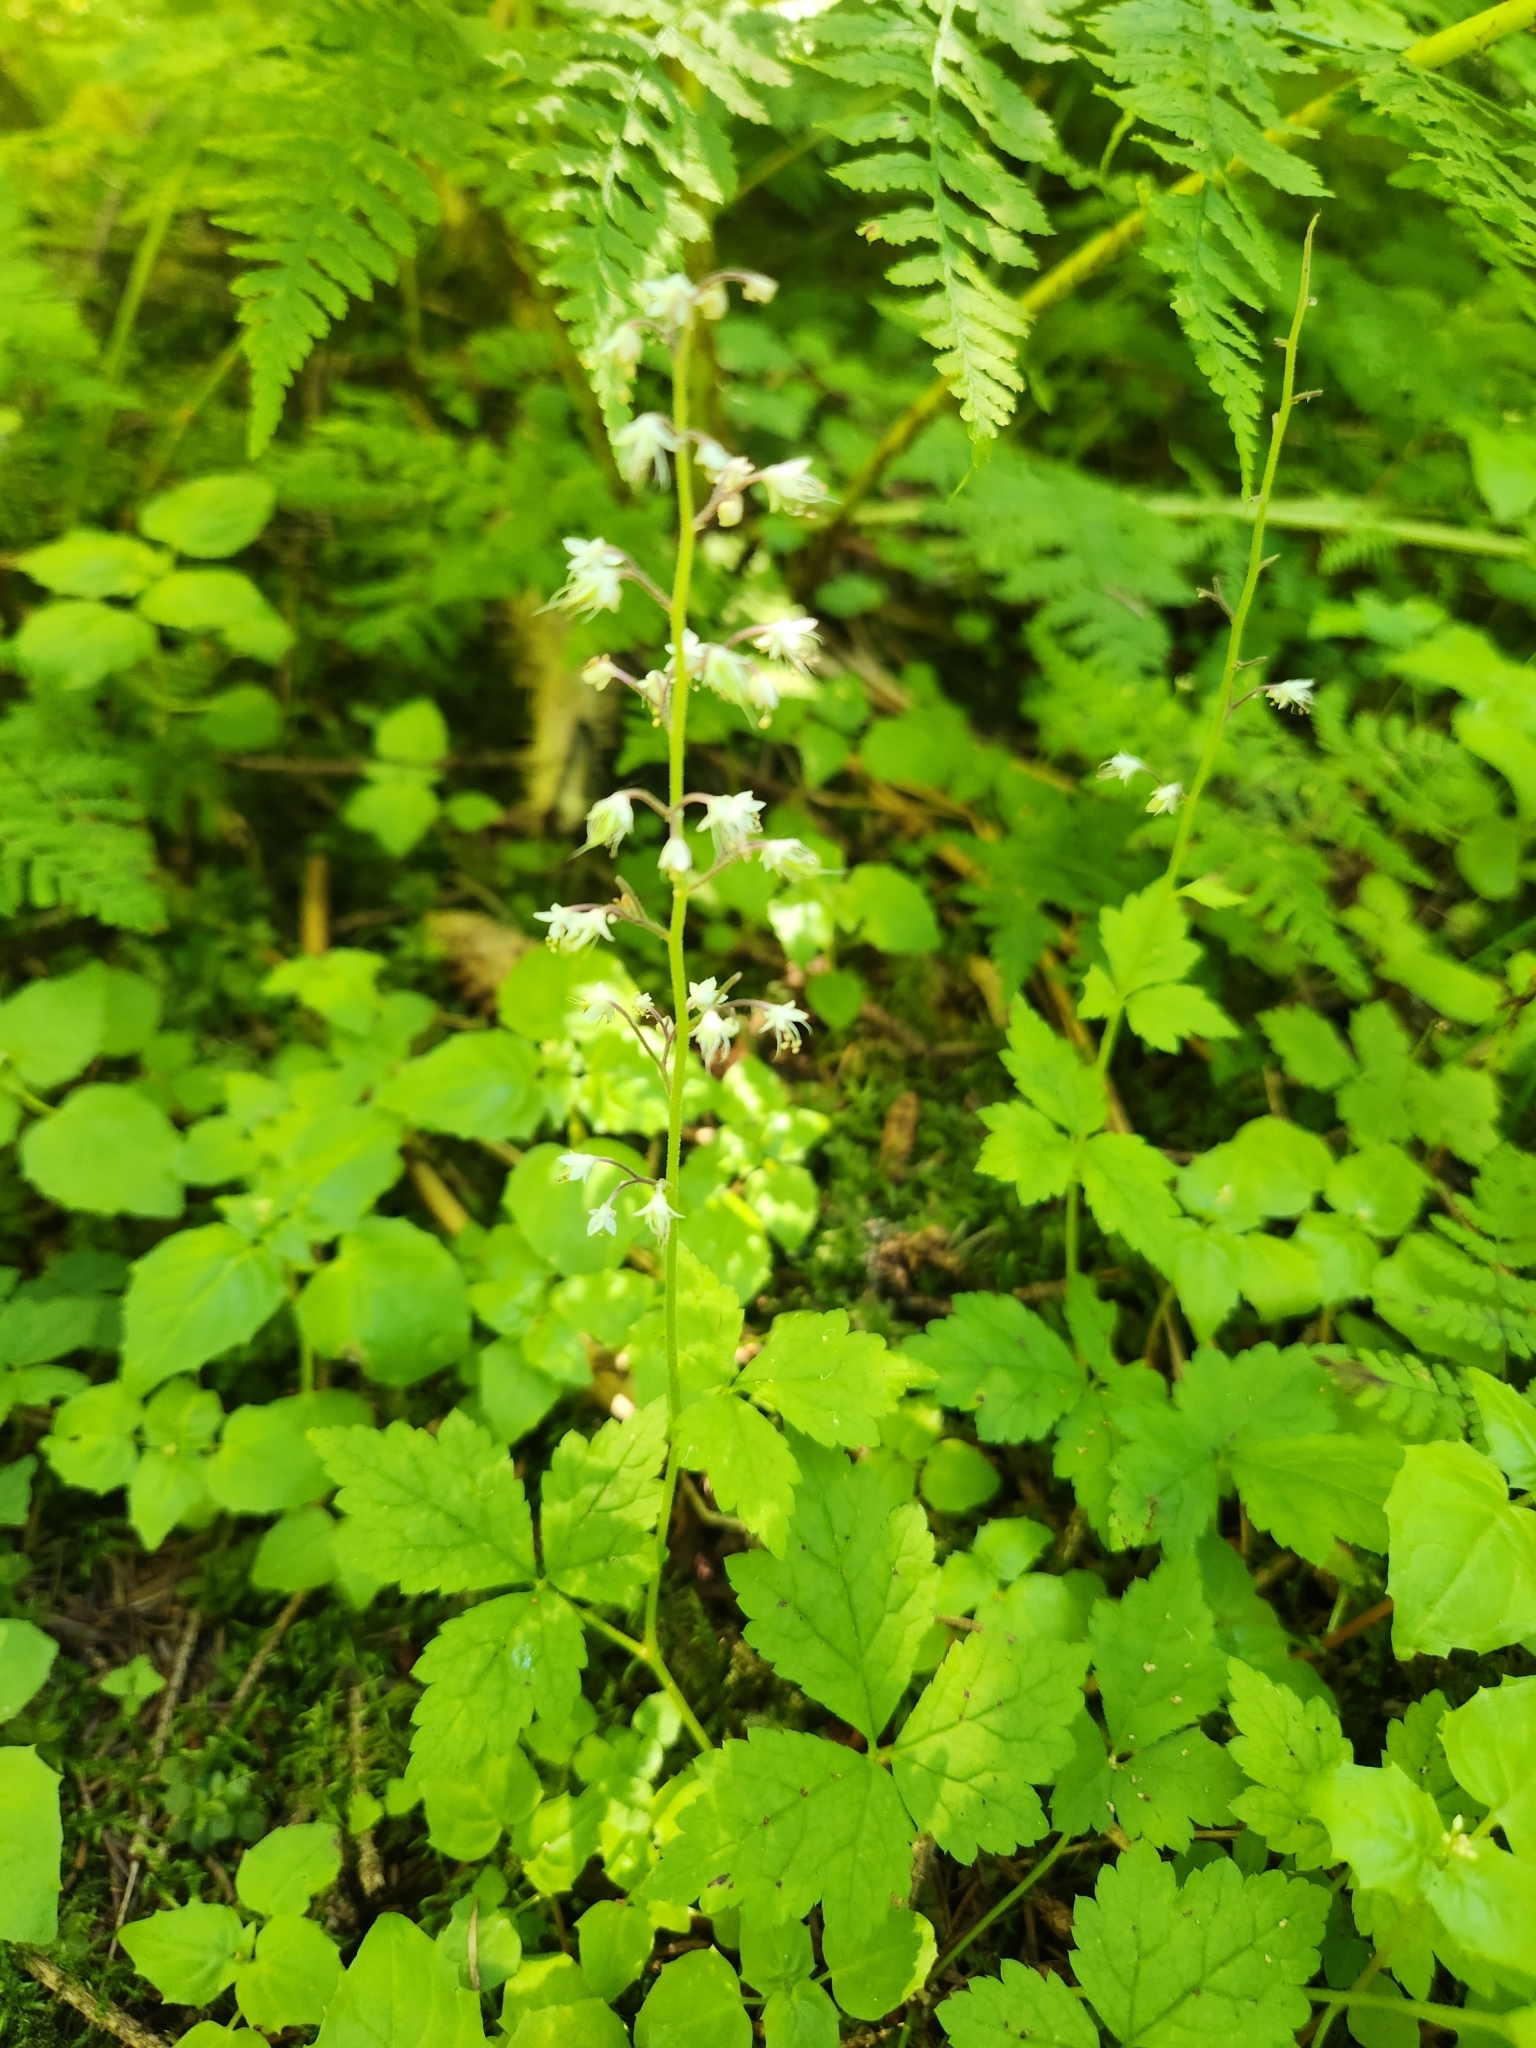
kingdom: Plantae
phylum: Tracheophyta
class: Magnoliopsida
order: Saxifragales
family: Saxifragaceae
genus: Tiarella
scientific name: Tiarella trifoliata
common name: Sugar-scoop
